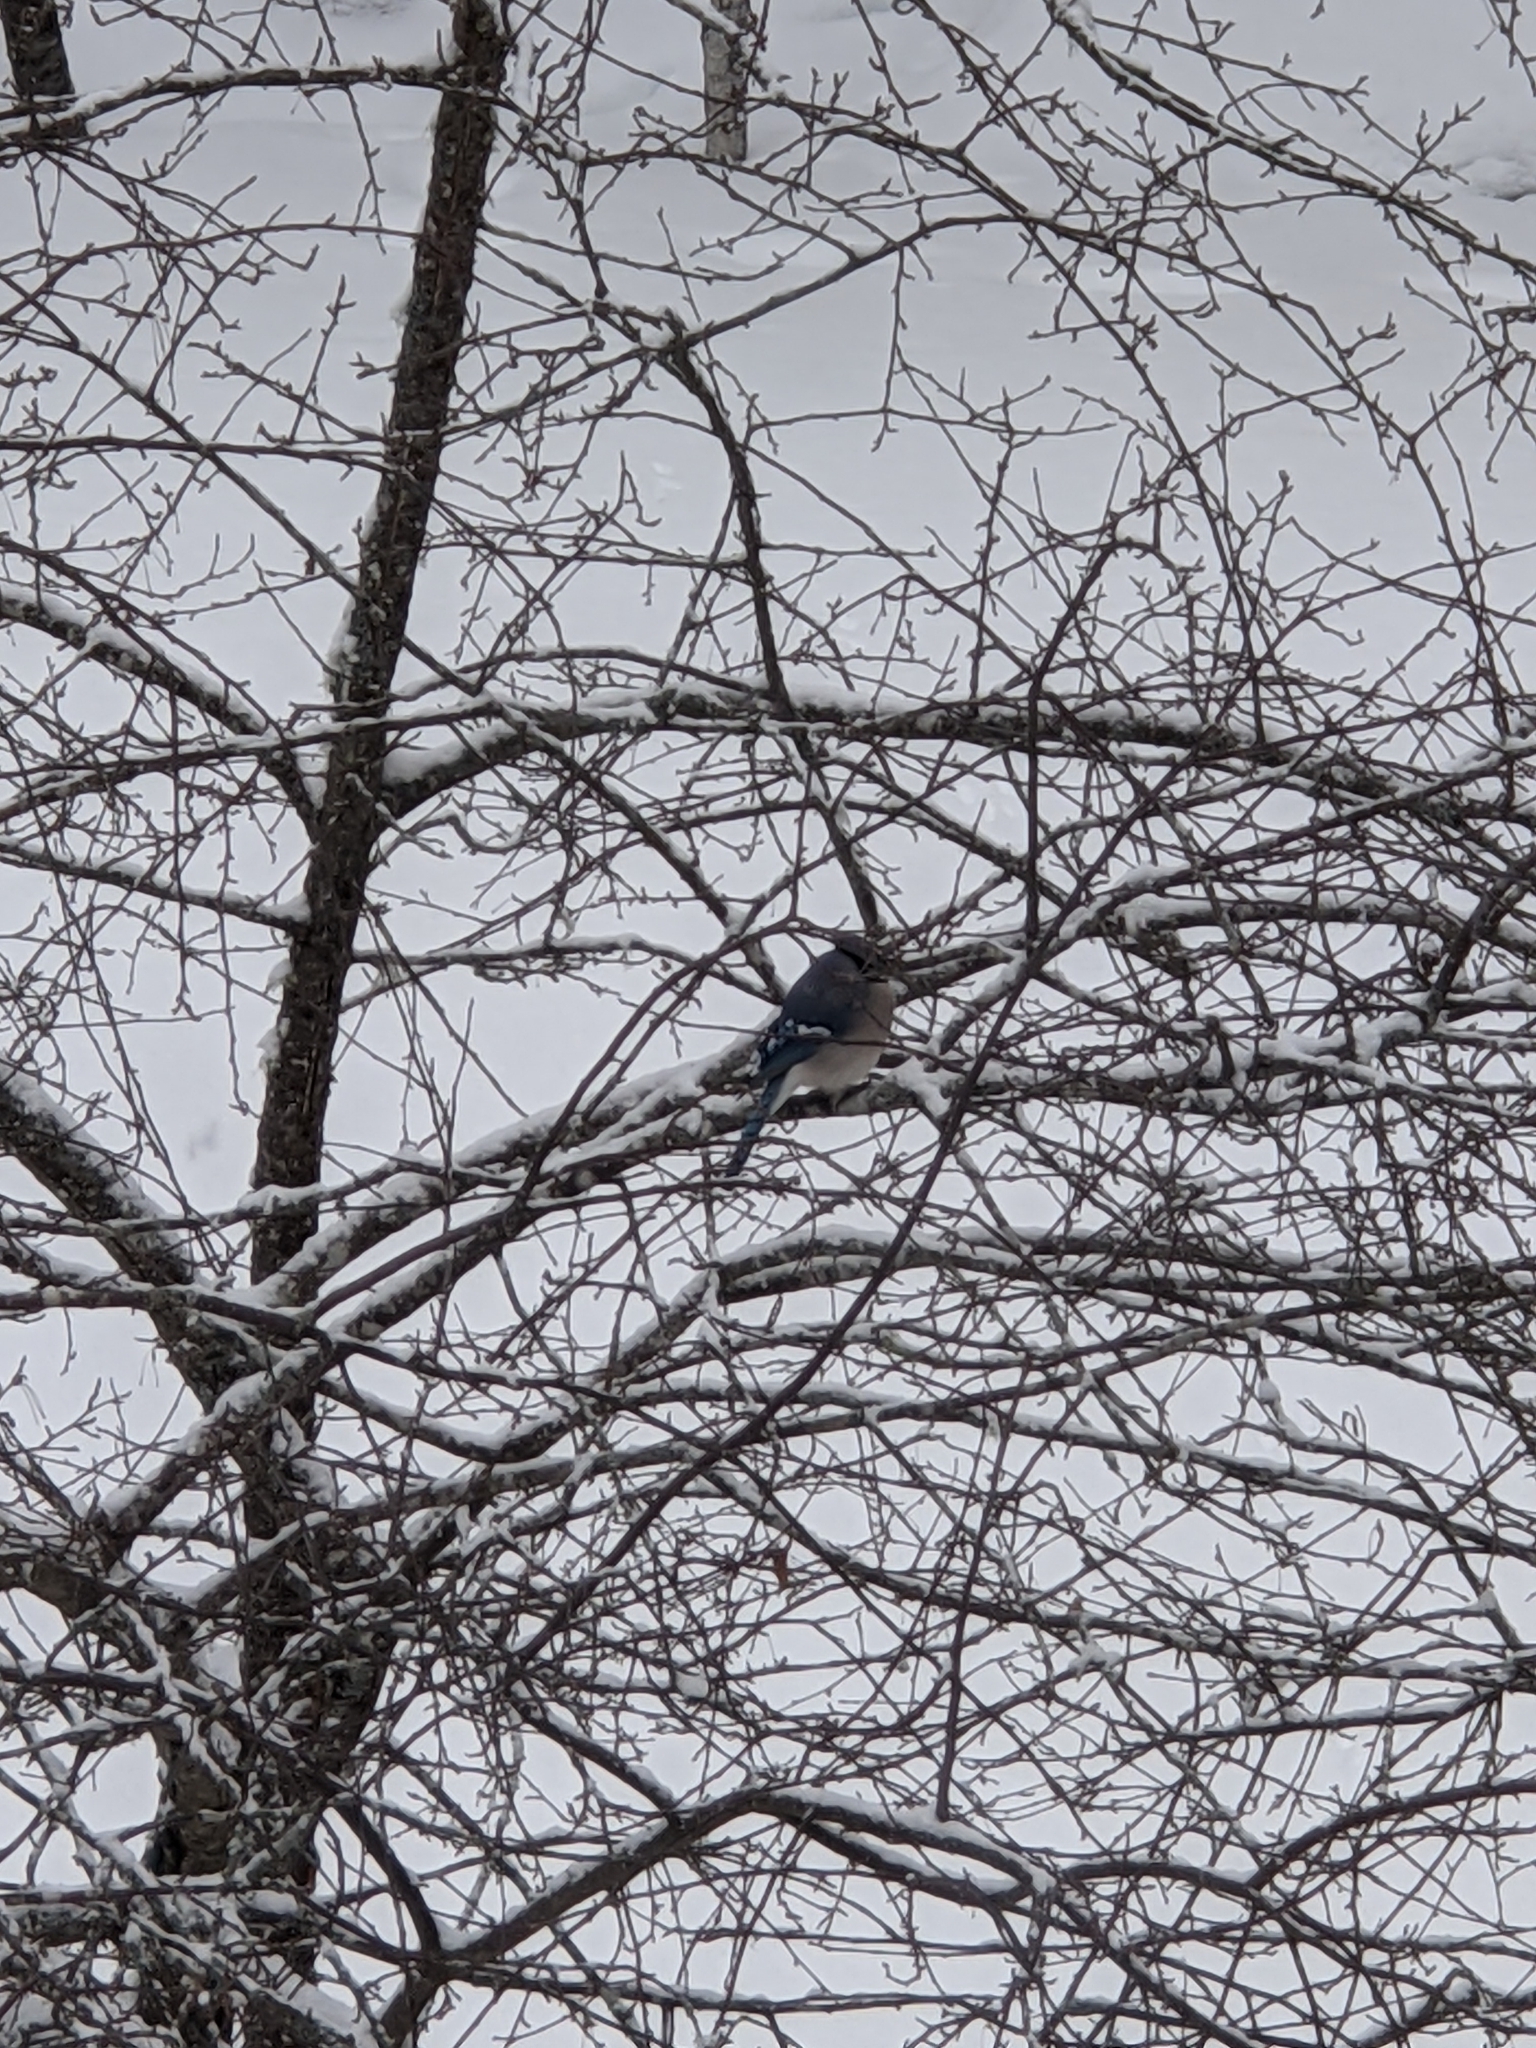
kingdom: Animalia
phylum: Chordata
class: Aves
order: Passeriformes
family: Corvidae
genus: Cyanocitta
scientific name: Cyanocitta cristata
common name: Blue jay
